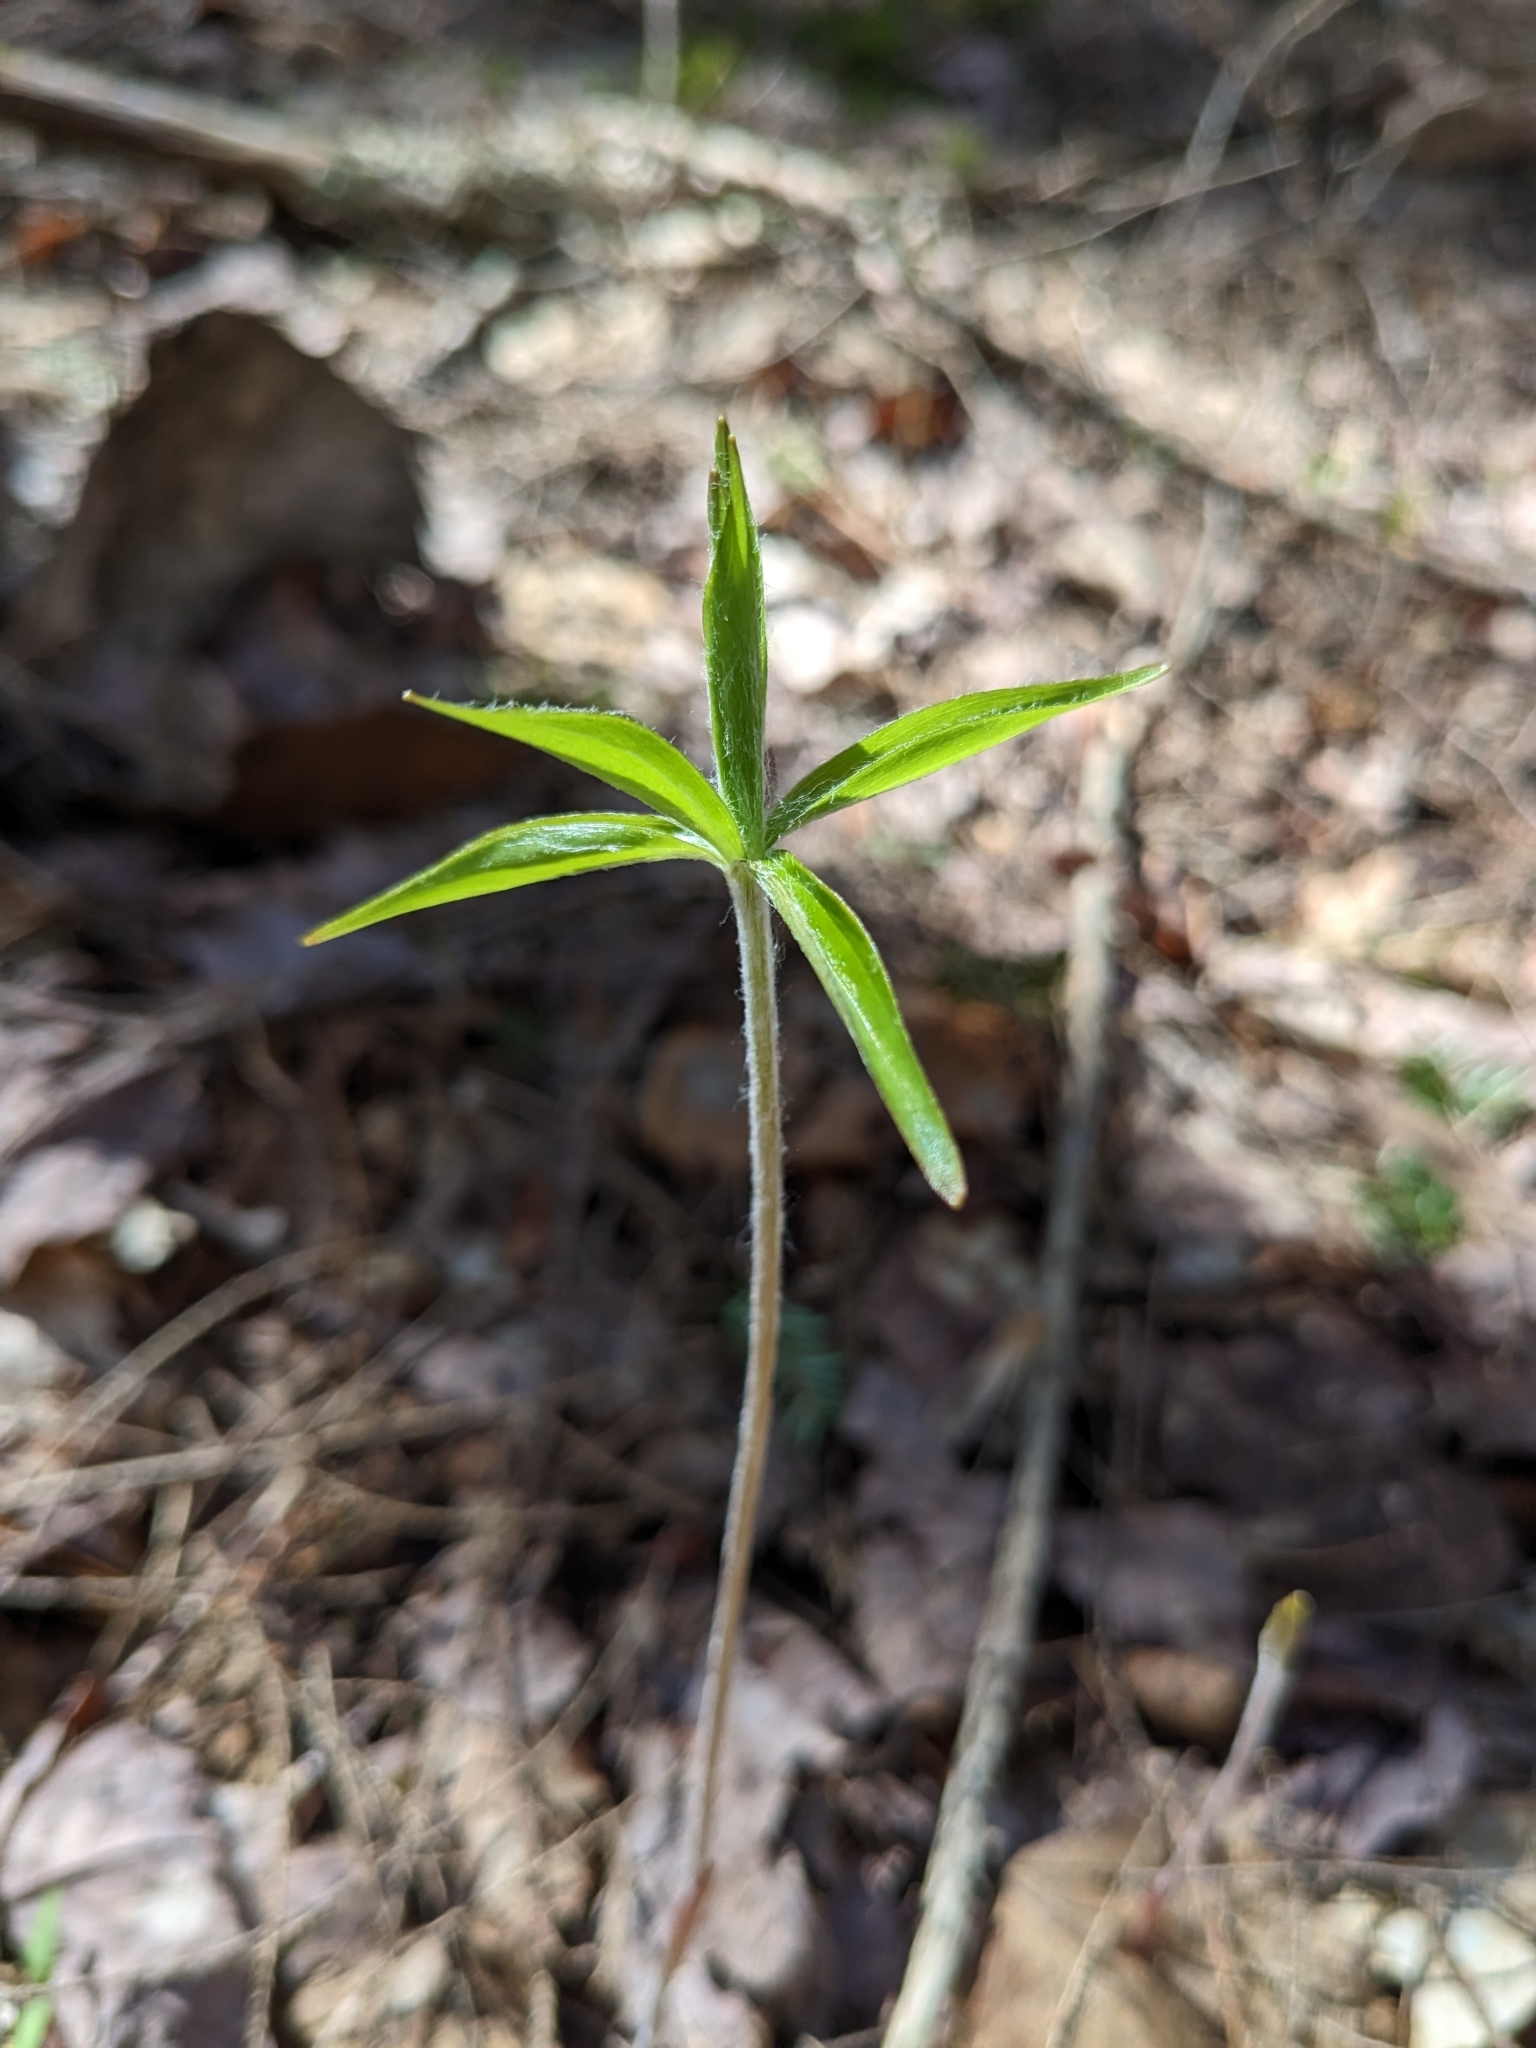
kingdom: Plantae
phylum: Tracheophyta
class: Liliopsida
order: Liliales
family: Liliaceae
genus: Medeola
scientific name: Medeola virginiana
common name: Indian cucumber-root
